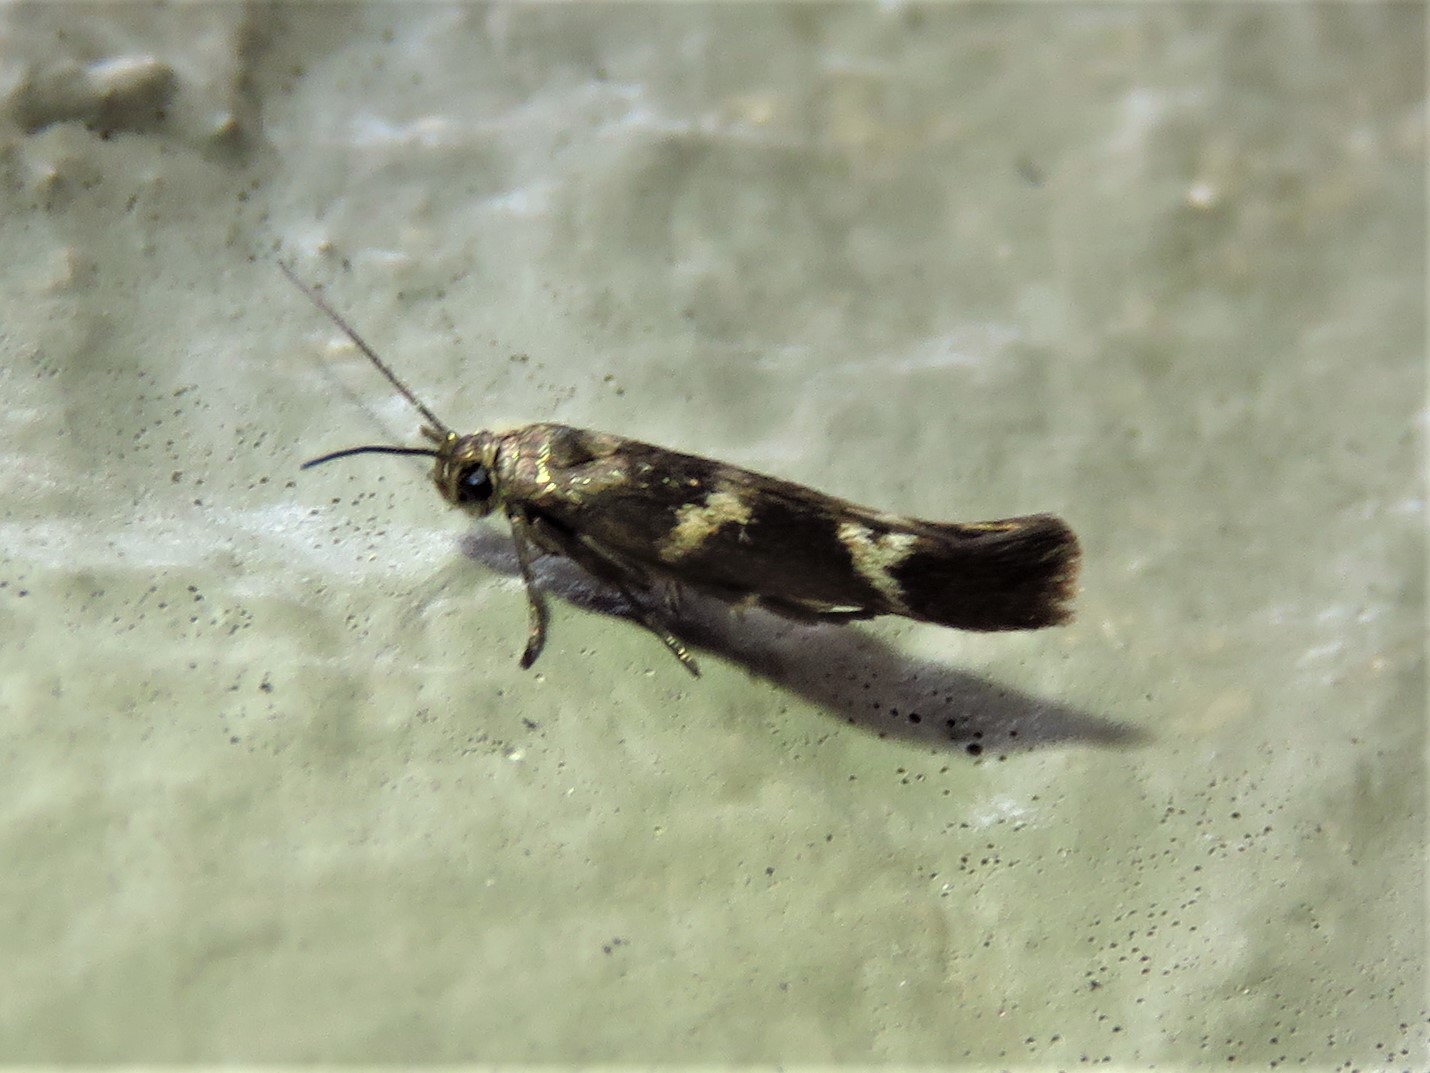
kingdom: Animalia
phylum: Arthropoda
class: Insecta
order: Lepidoptera
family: Scythrididae
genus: Scythris
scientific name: Scythris trivinctella
